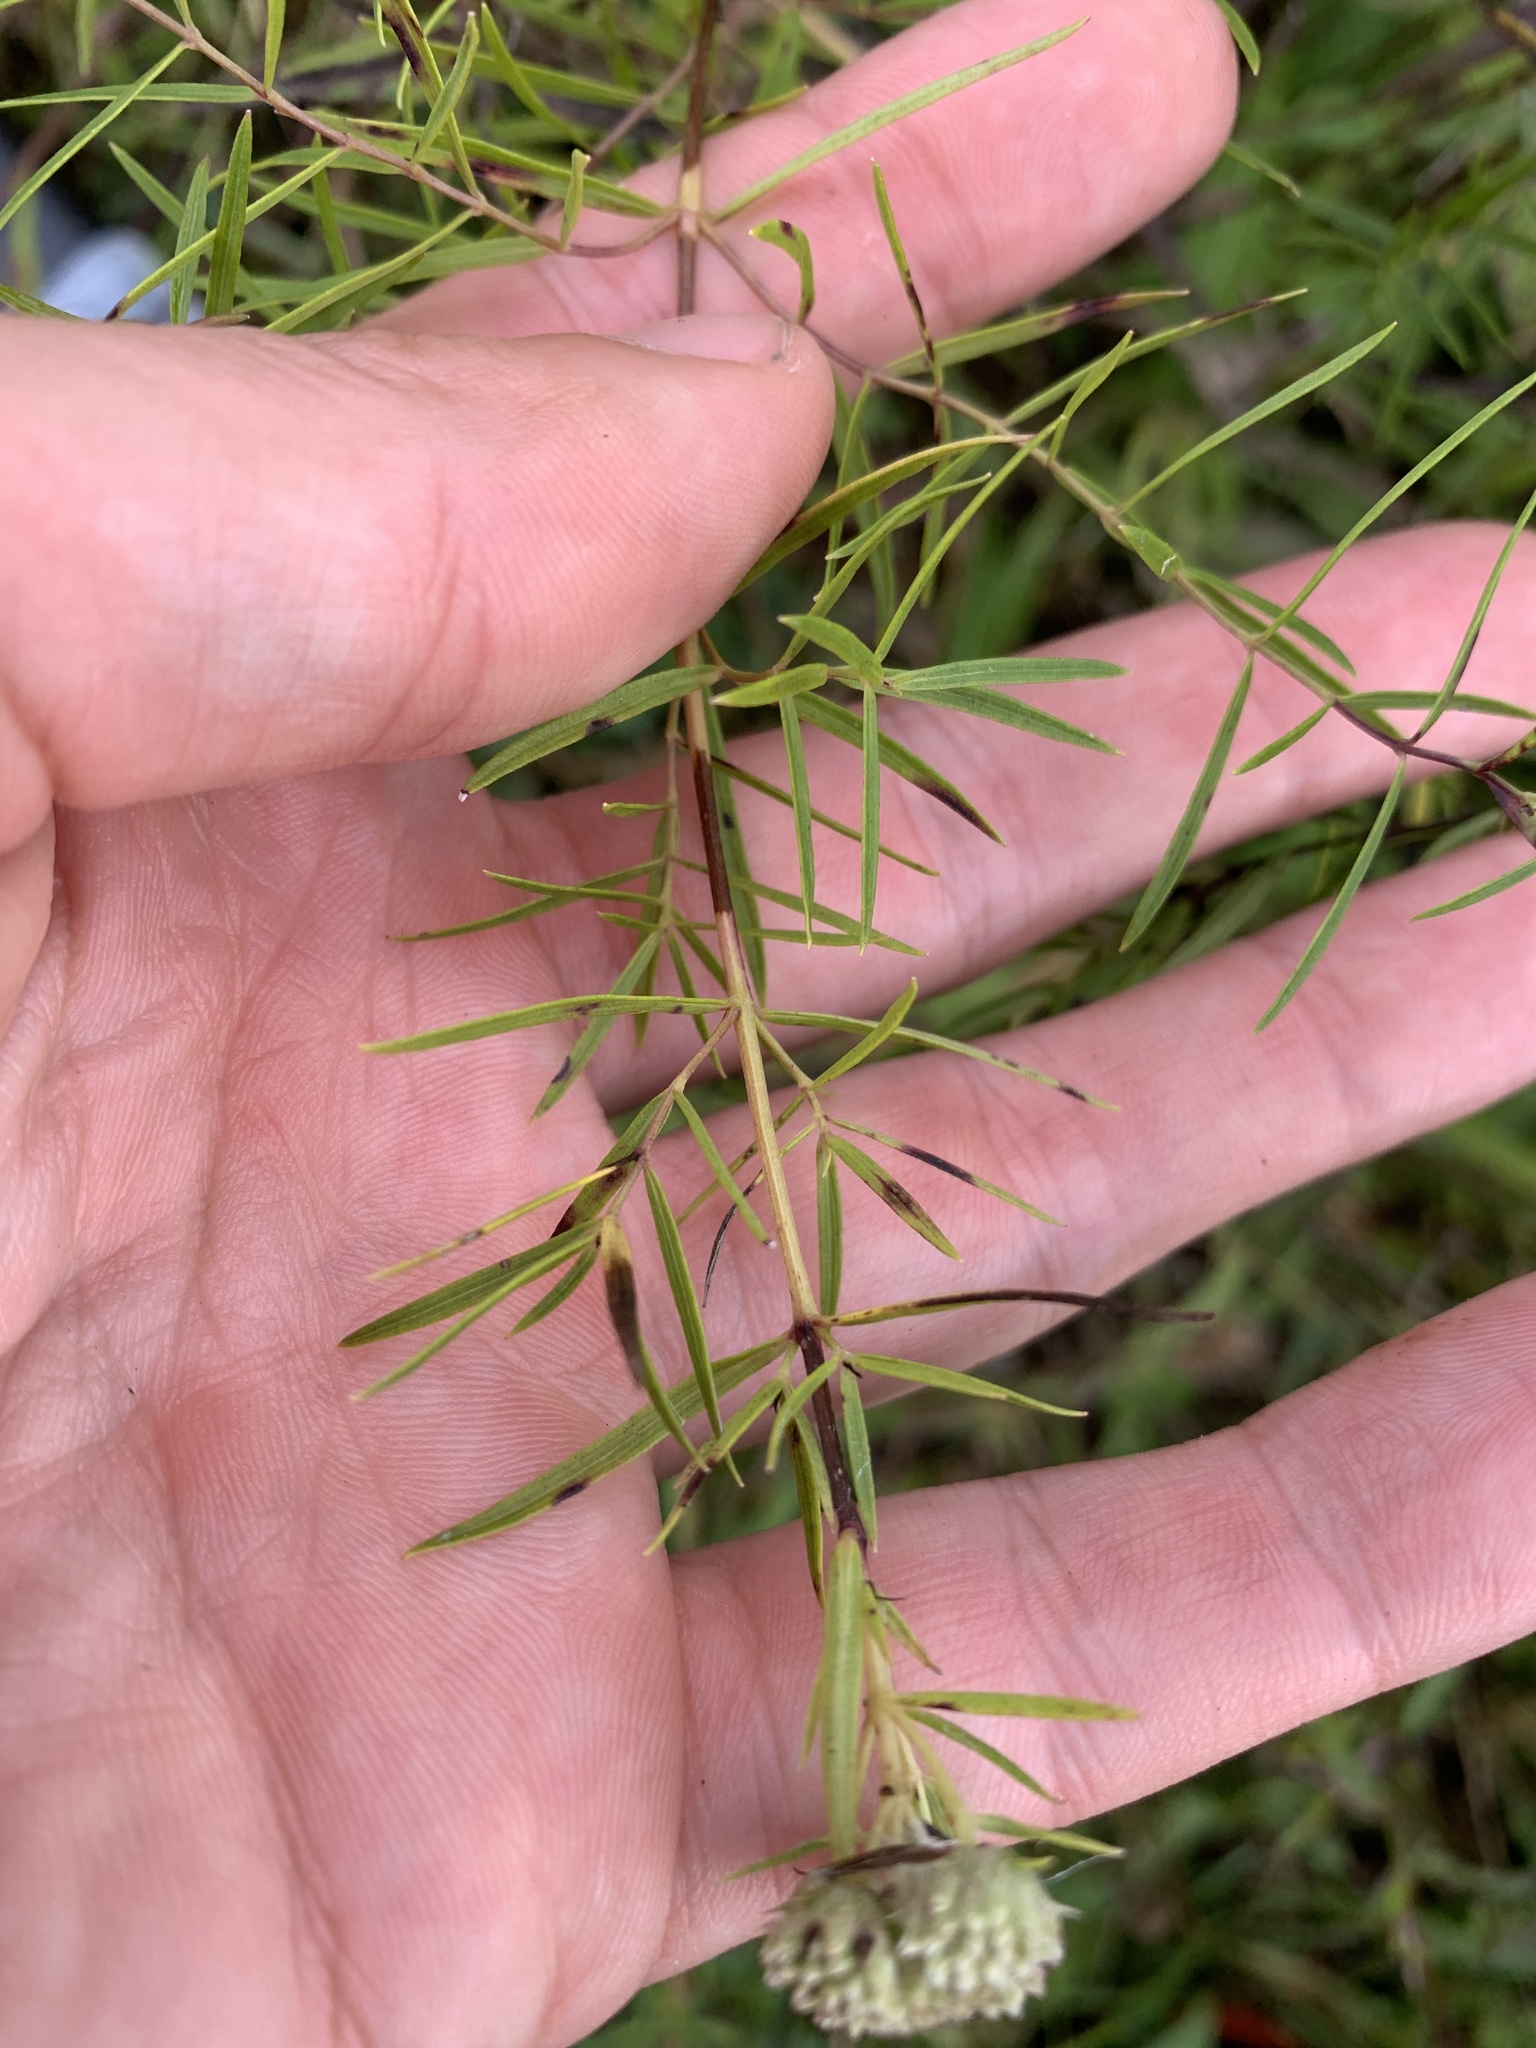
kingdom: Plantae
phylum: Tracheophyta
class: Magnoliopsida
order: Lamiales
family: Lamiaceae
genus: Pycnanthemum
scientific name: Pycnanthemum tenuifolium
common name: Narrow-leaf mountain-mint
